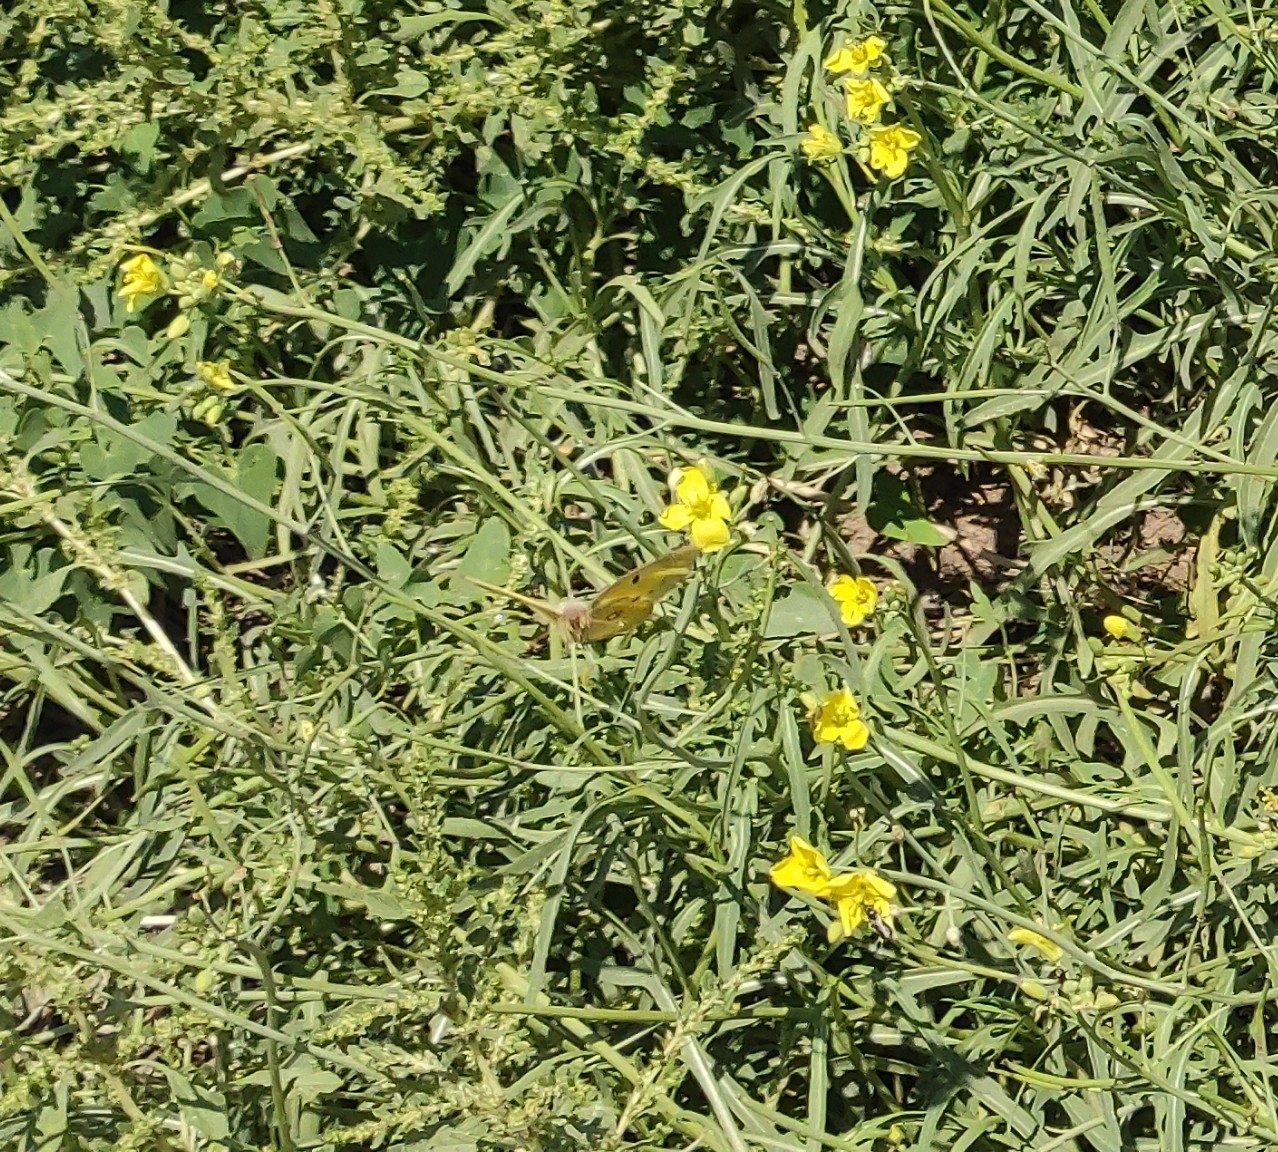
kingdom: Animalia
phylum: Arthropoda
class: Insecta
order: Lepidoptera
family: Pieridae
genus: Colias
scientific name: Colias croceus
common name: Clouded yellow
